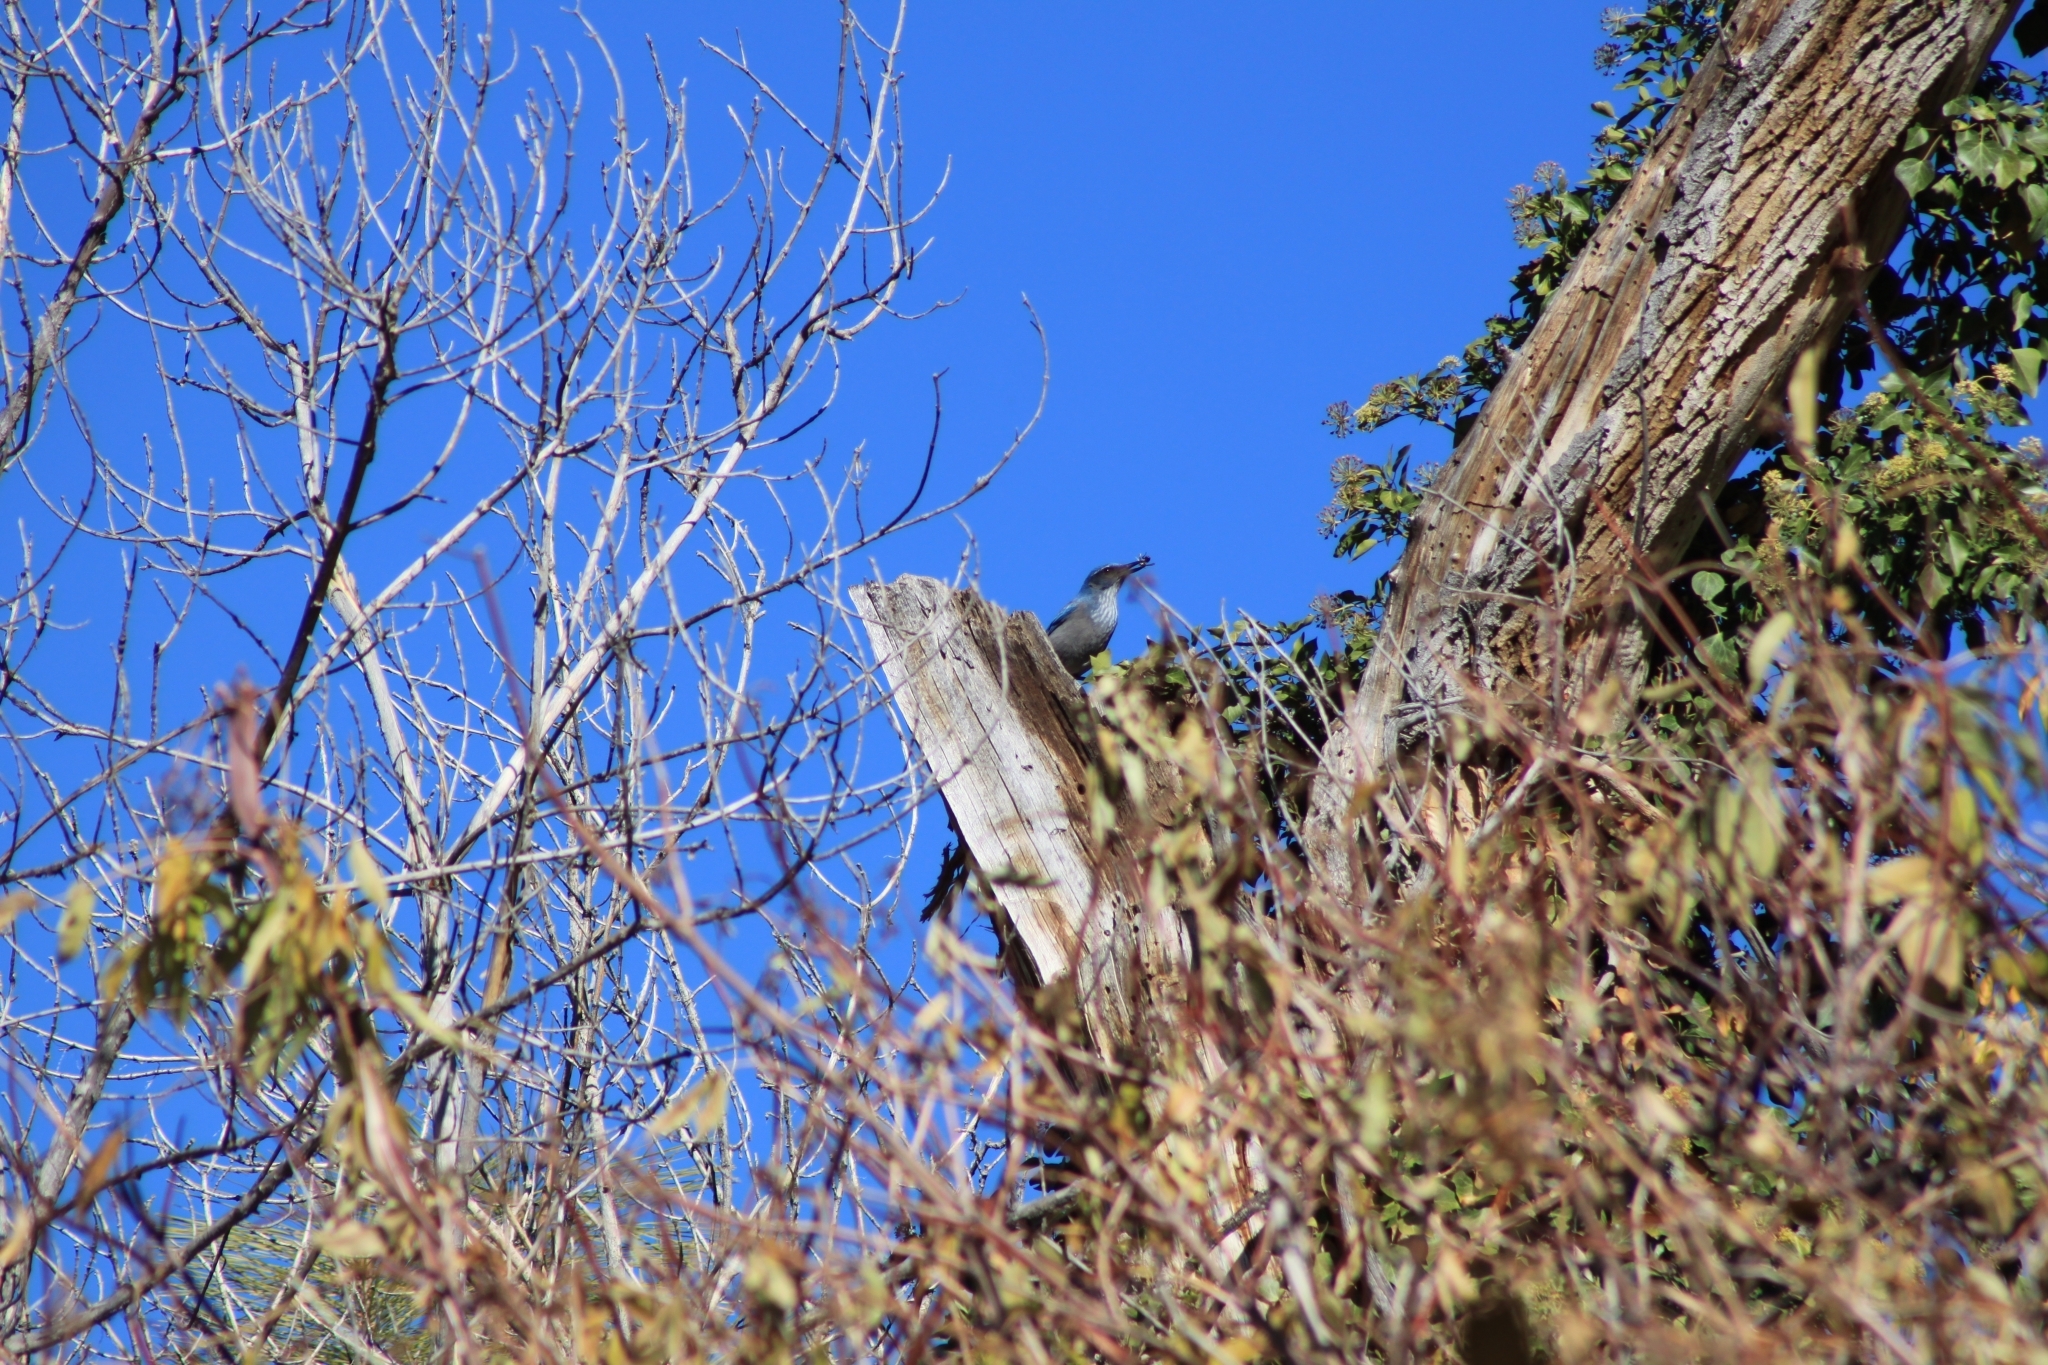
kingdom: Animalia
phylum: Chordata
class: Aves
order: Passeriformes
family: Corvidae
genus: Aphelocoma
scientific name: Aphelocoma woodhouseii
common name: Woodhouse's scrub-jay
